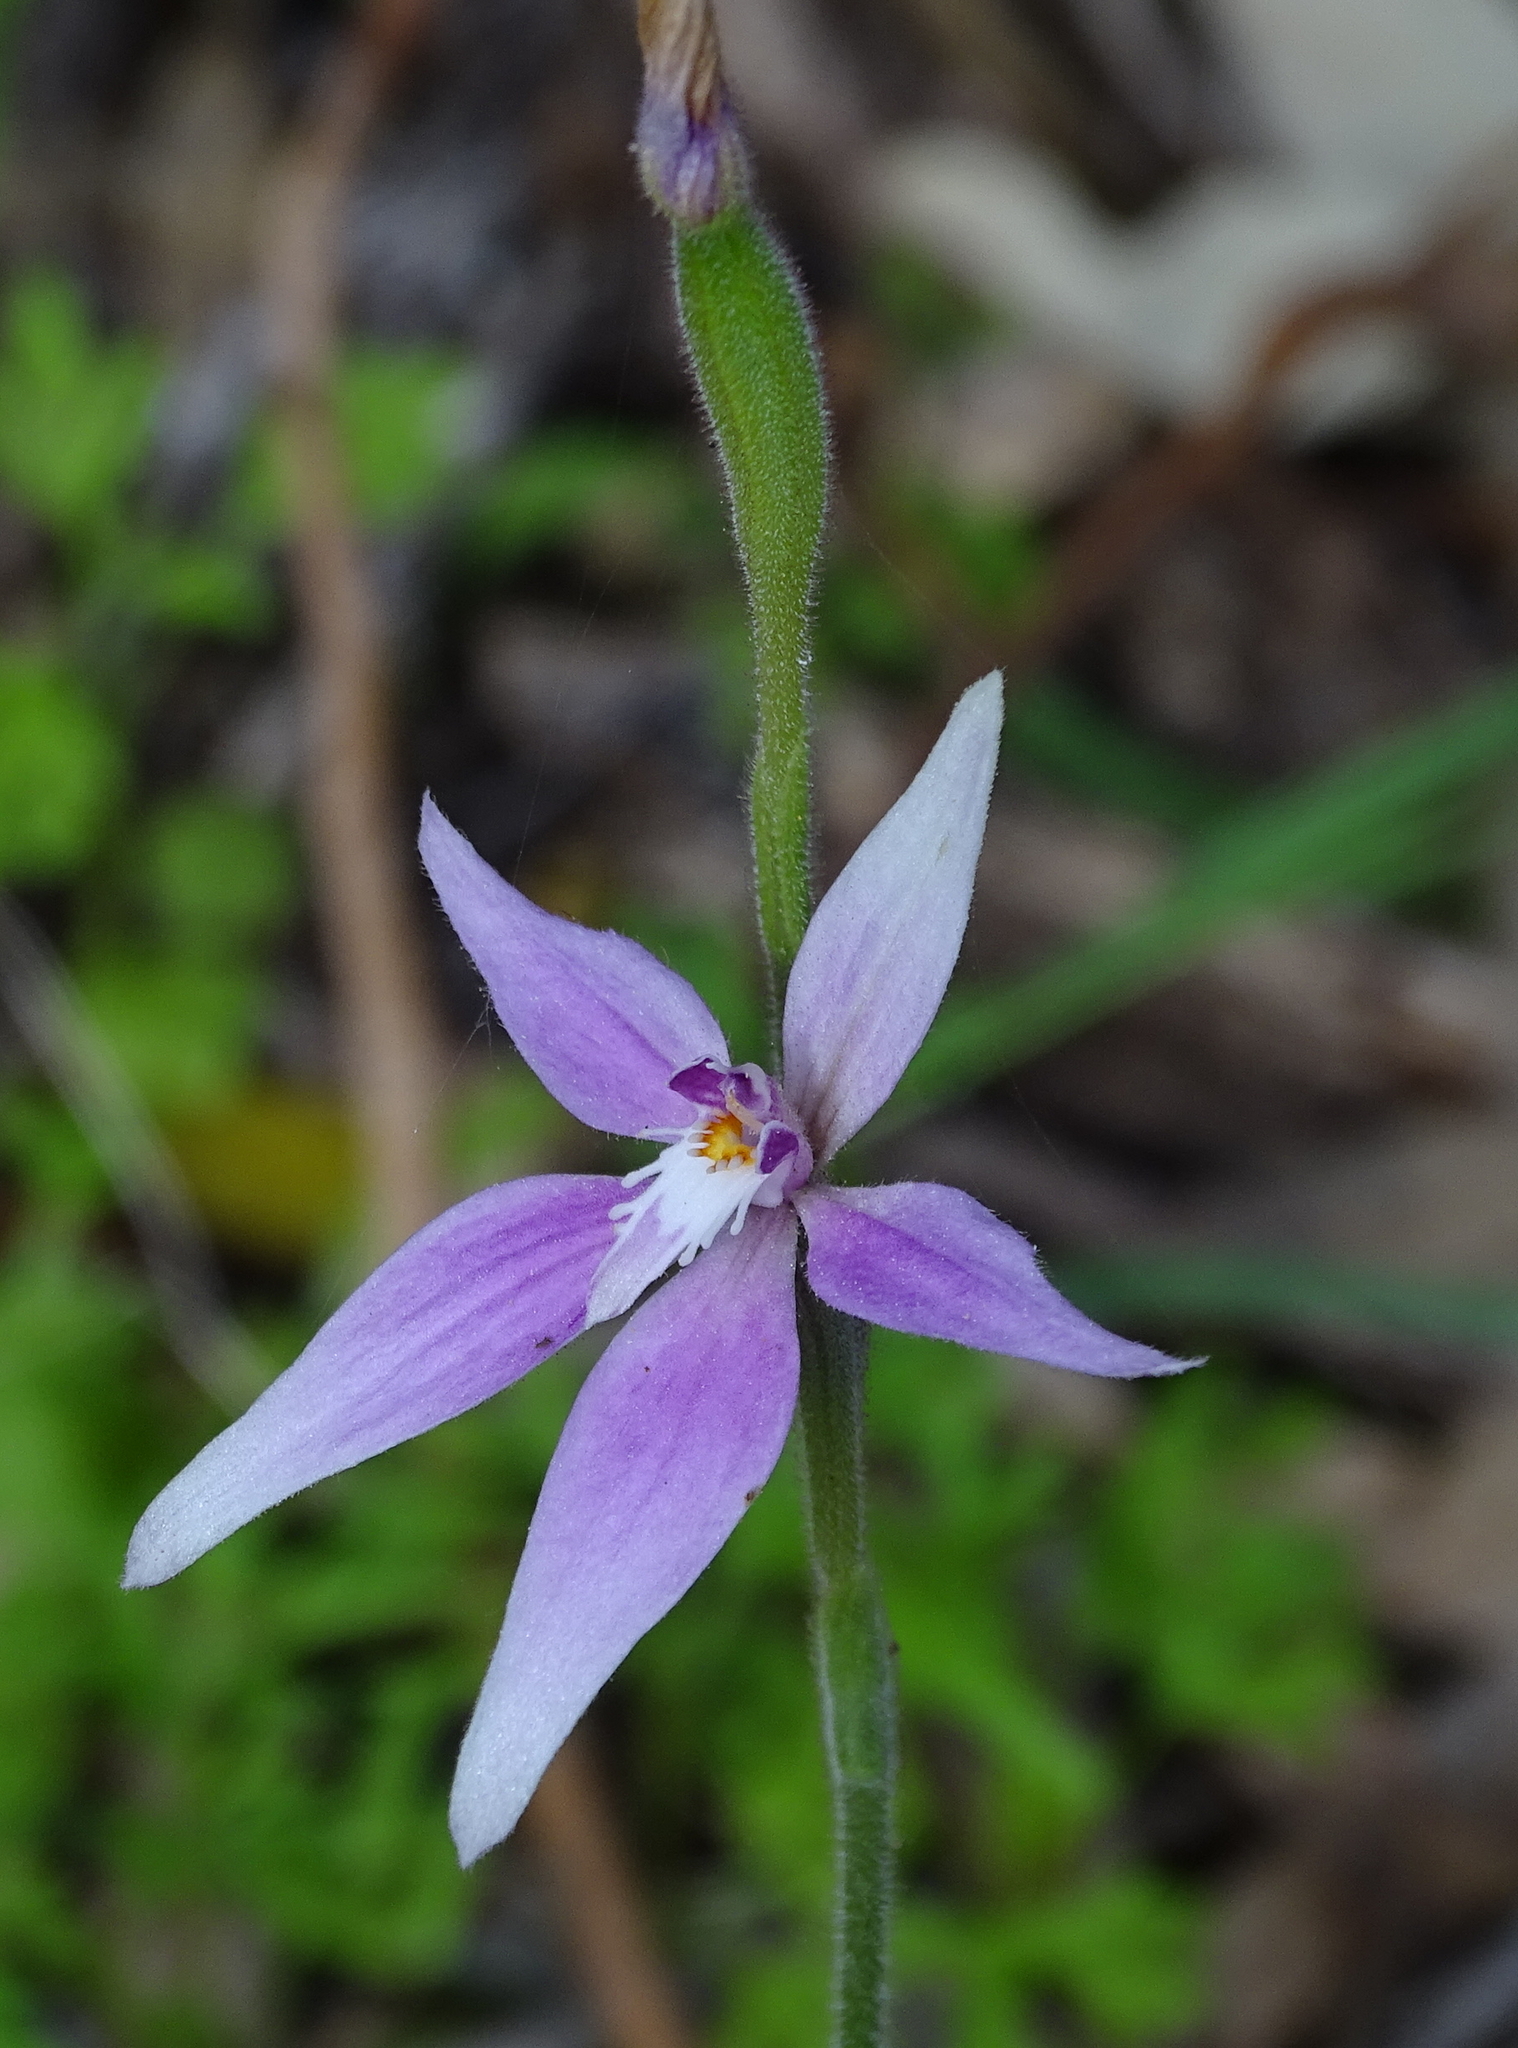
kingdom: Plantae
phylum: Tracheophyta
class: Liliopsida
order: Asparagales
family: Orchidaceae
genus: Caladenia
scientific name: Caladenia latifolia
